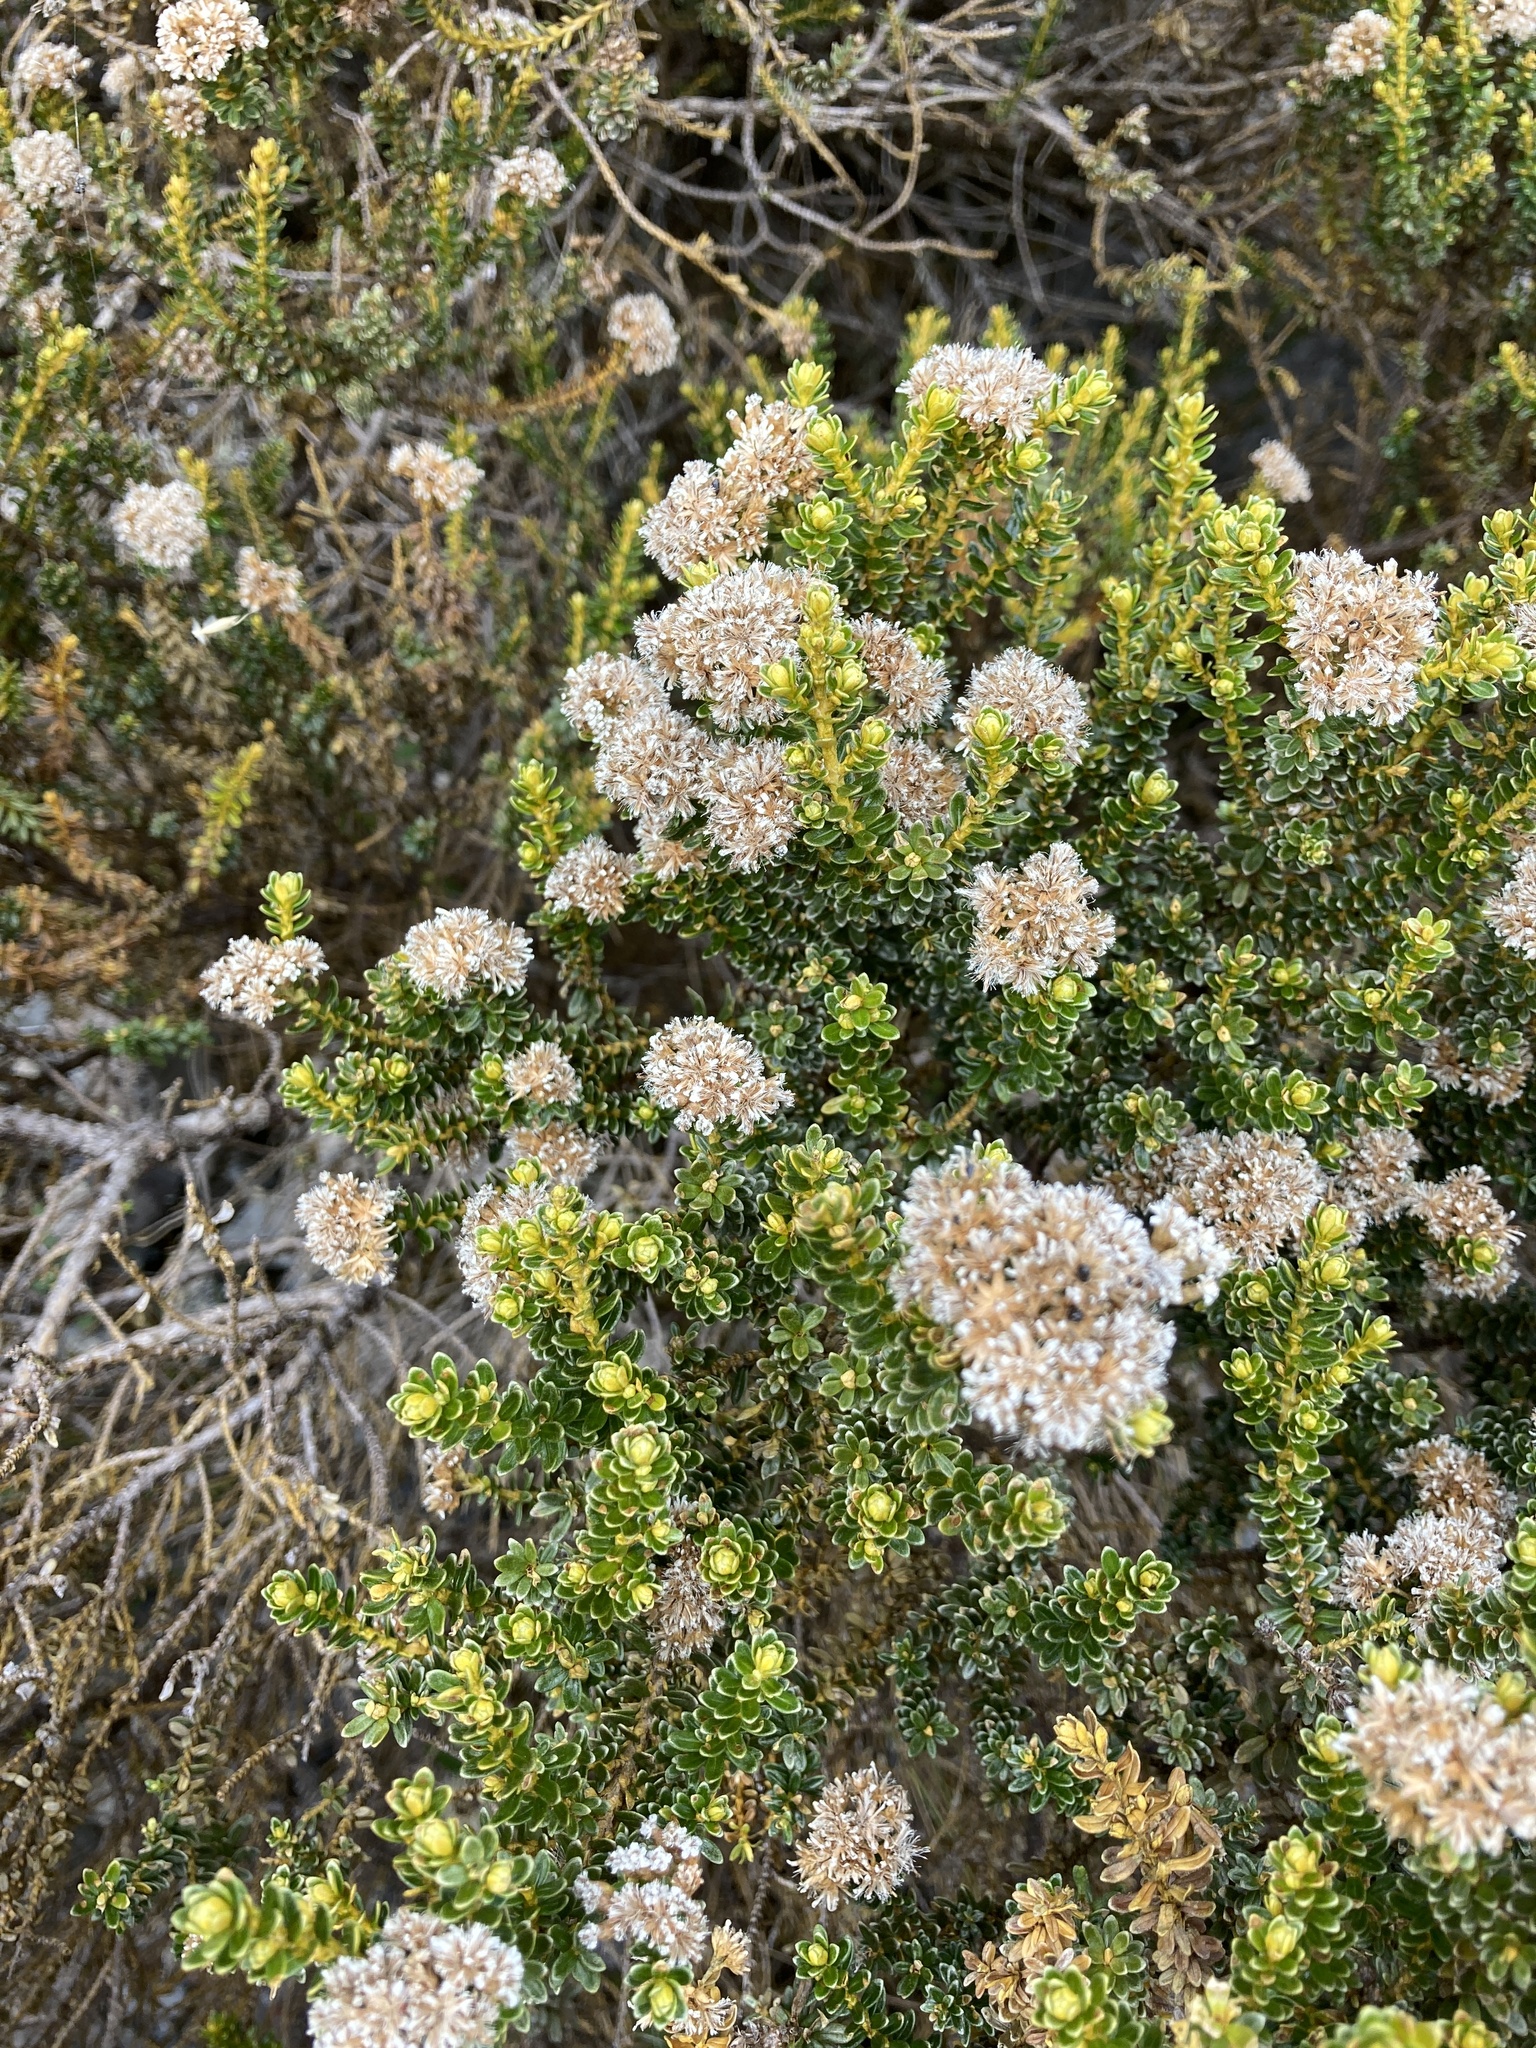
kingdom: Plantae
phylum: Tracheophyta
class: Magnoliopsida
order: Asterales
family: Asteraceae
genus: Ozothamnus
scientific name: Ozothamnus leptophyllus
